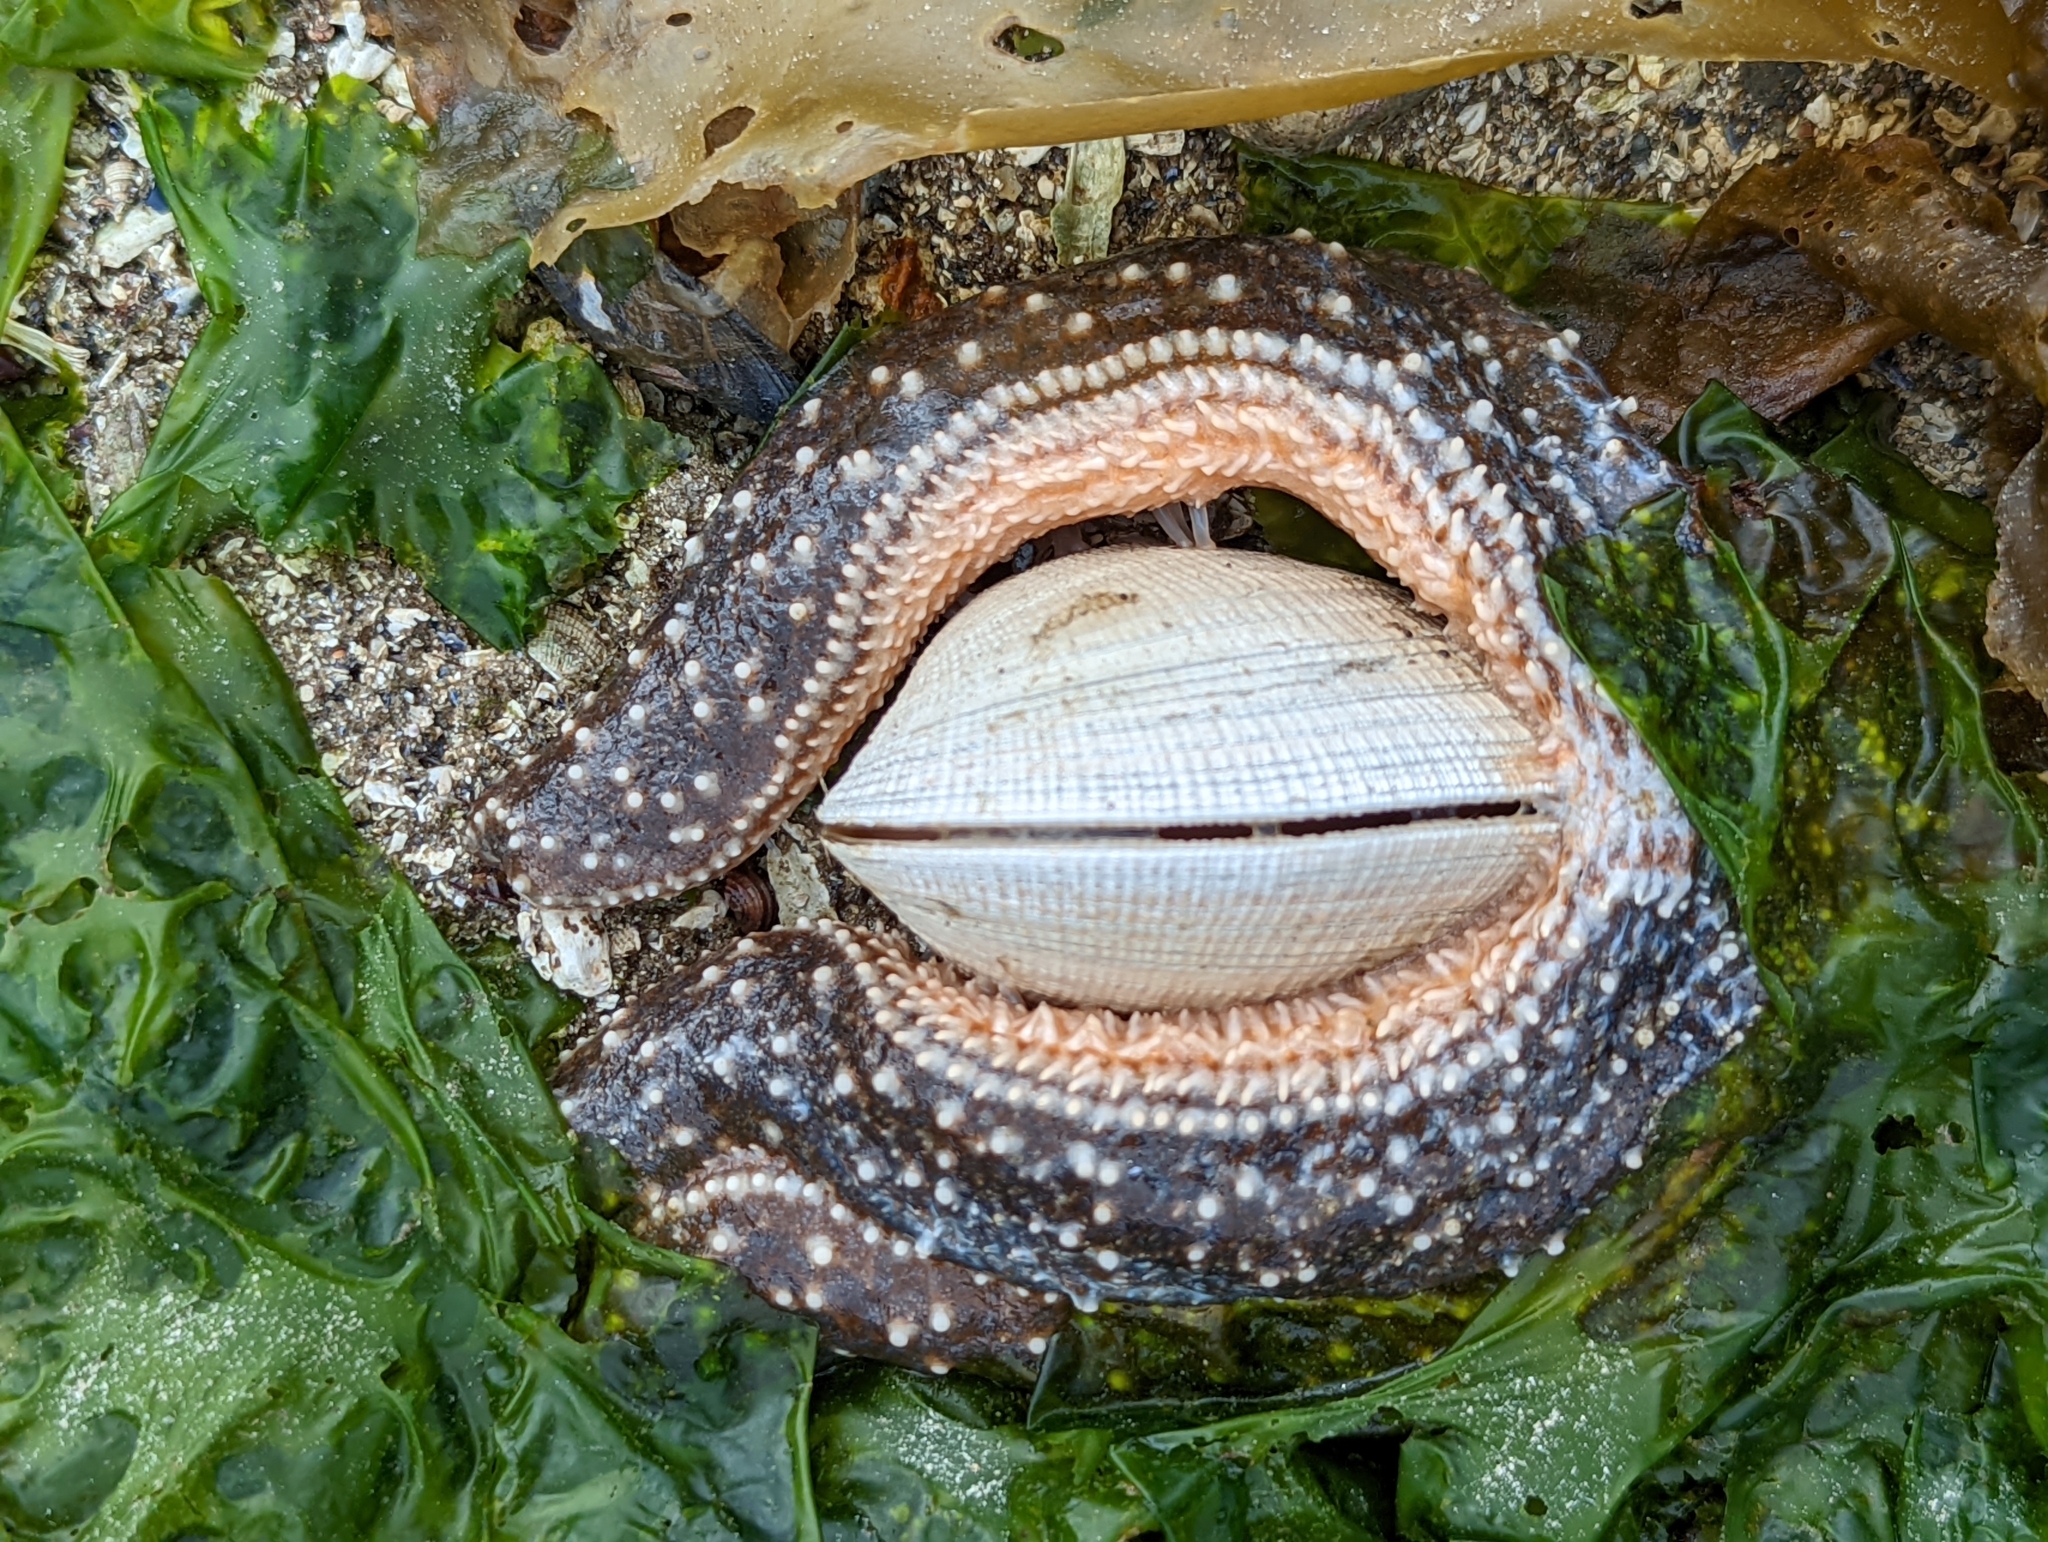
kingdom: Animalia
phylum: Echinodermata
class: Asteroidea
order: Forcipulatida
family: Asteriidae
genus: Evasterias
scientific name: Evasterias troschelii
